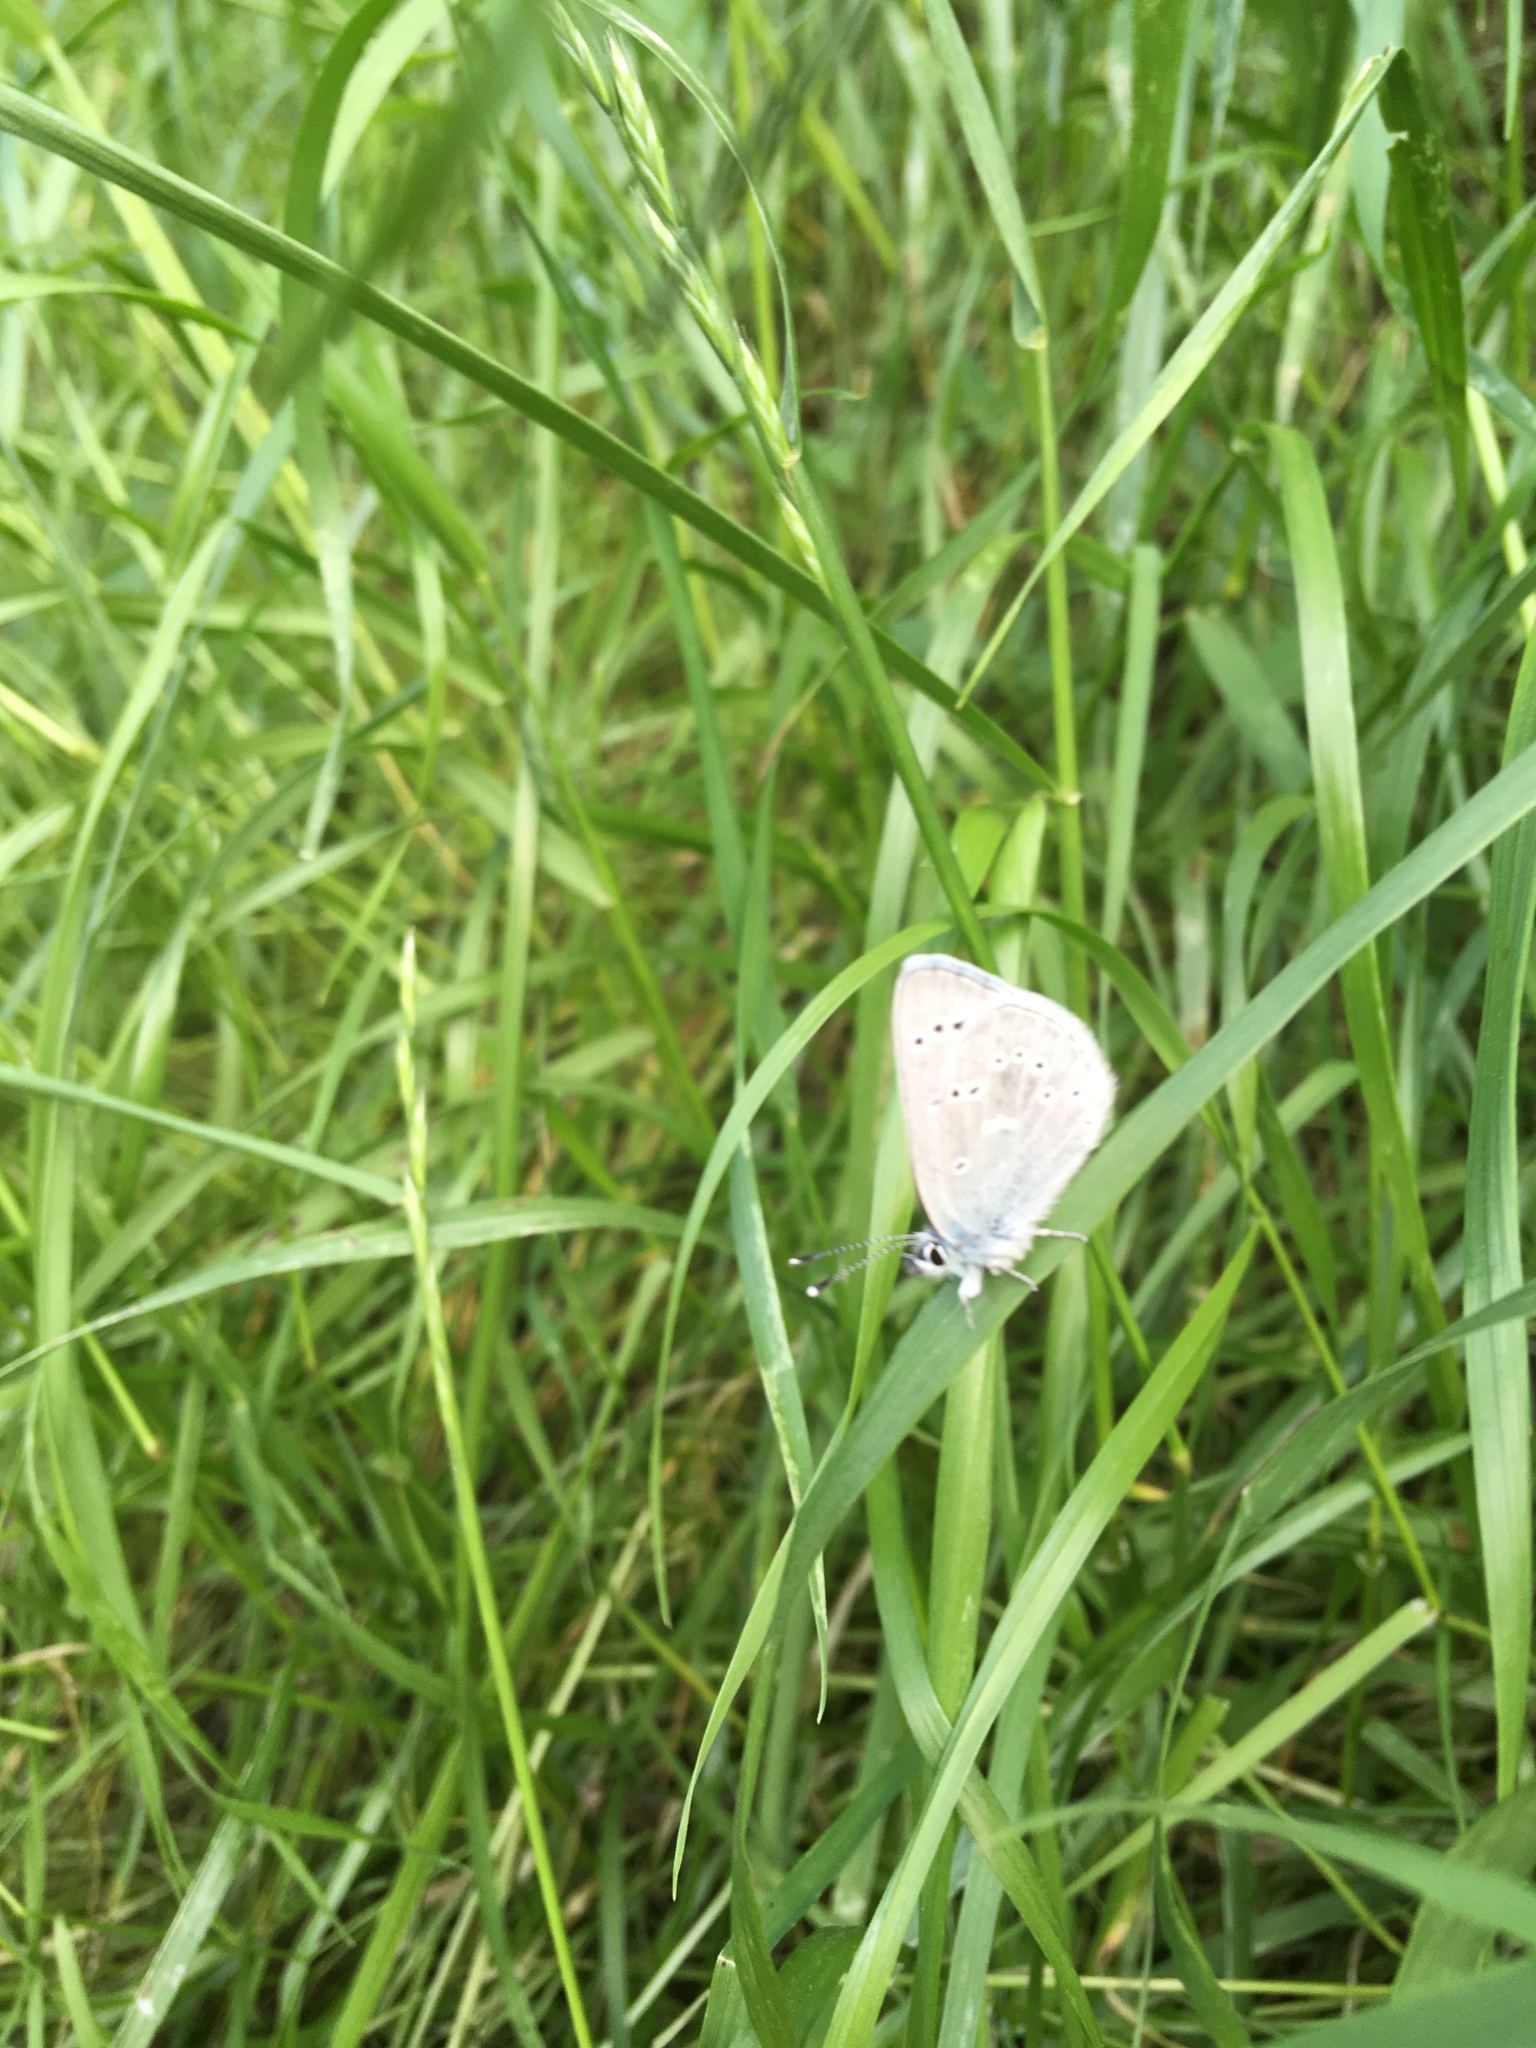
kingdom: Animalia
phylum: Arthropoda
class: Insecta
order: Lepidoptera
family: Lycaenidae
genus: Glaucopsyche
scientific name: Glaucopsyche lygdamus
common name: Silvery blue
